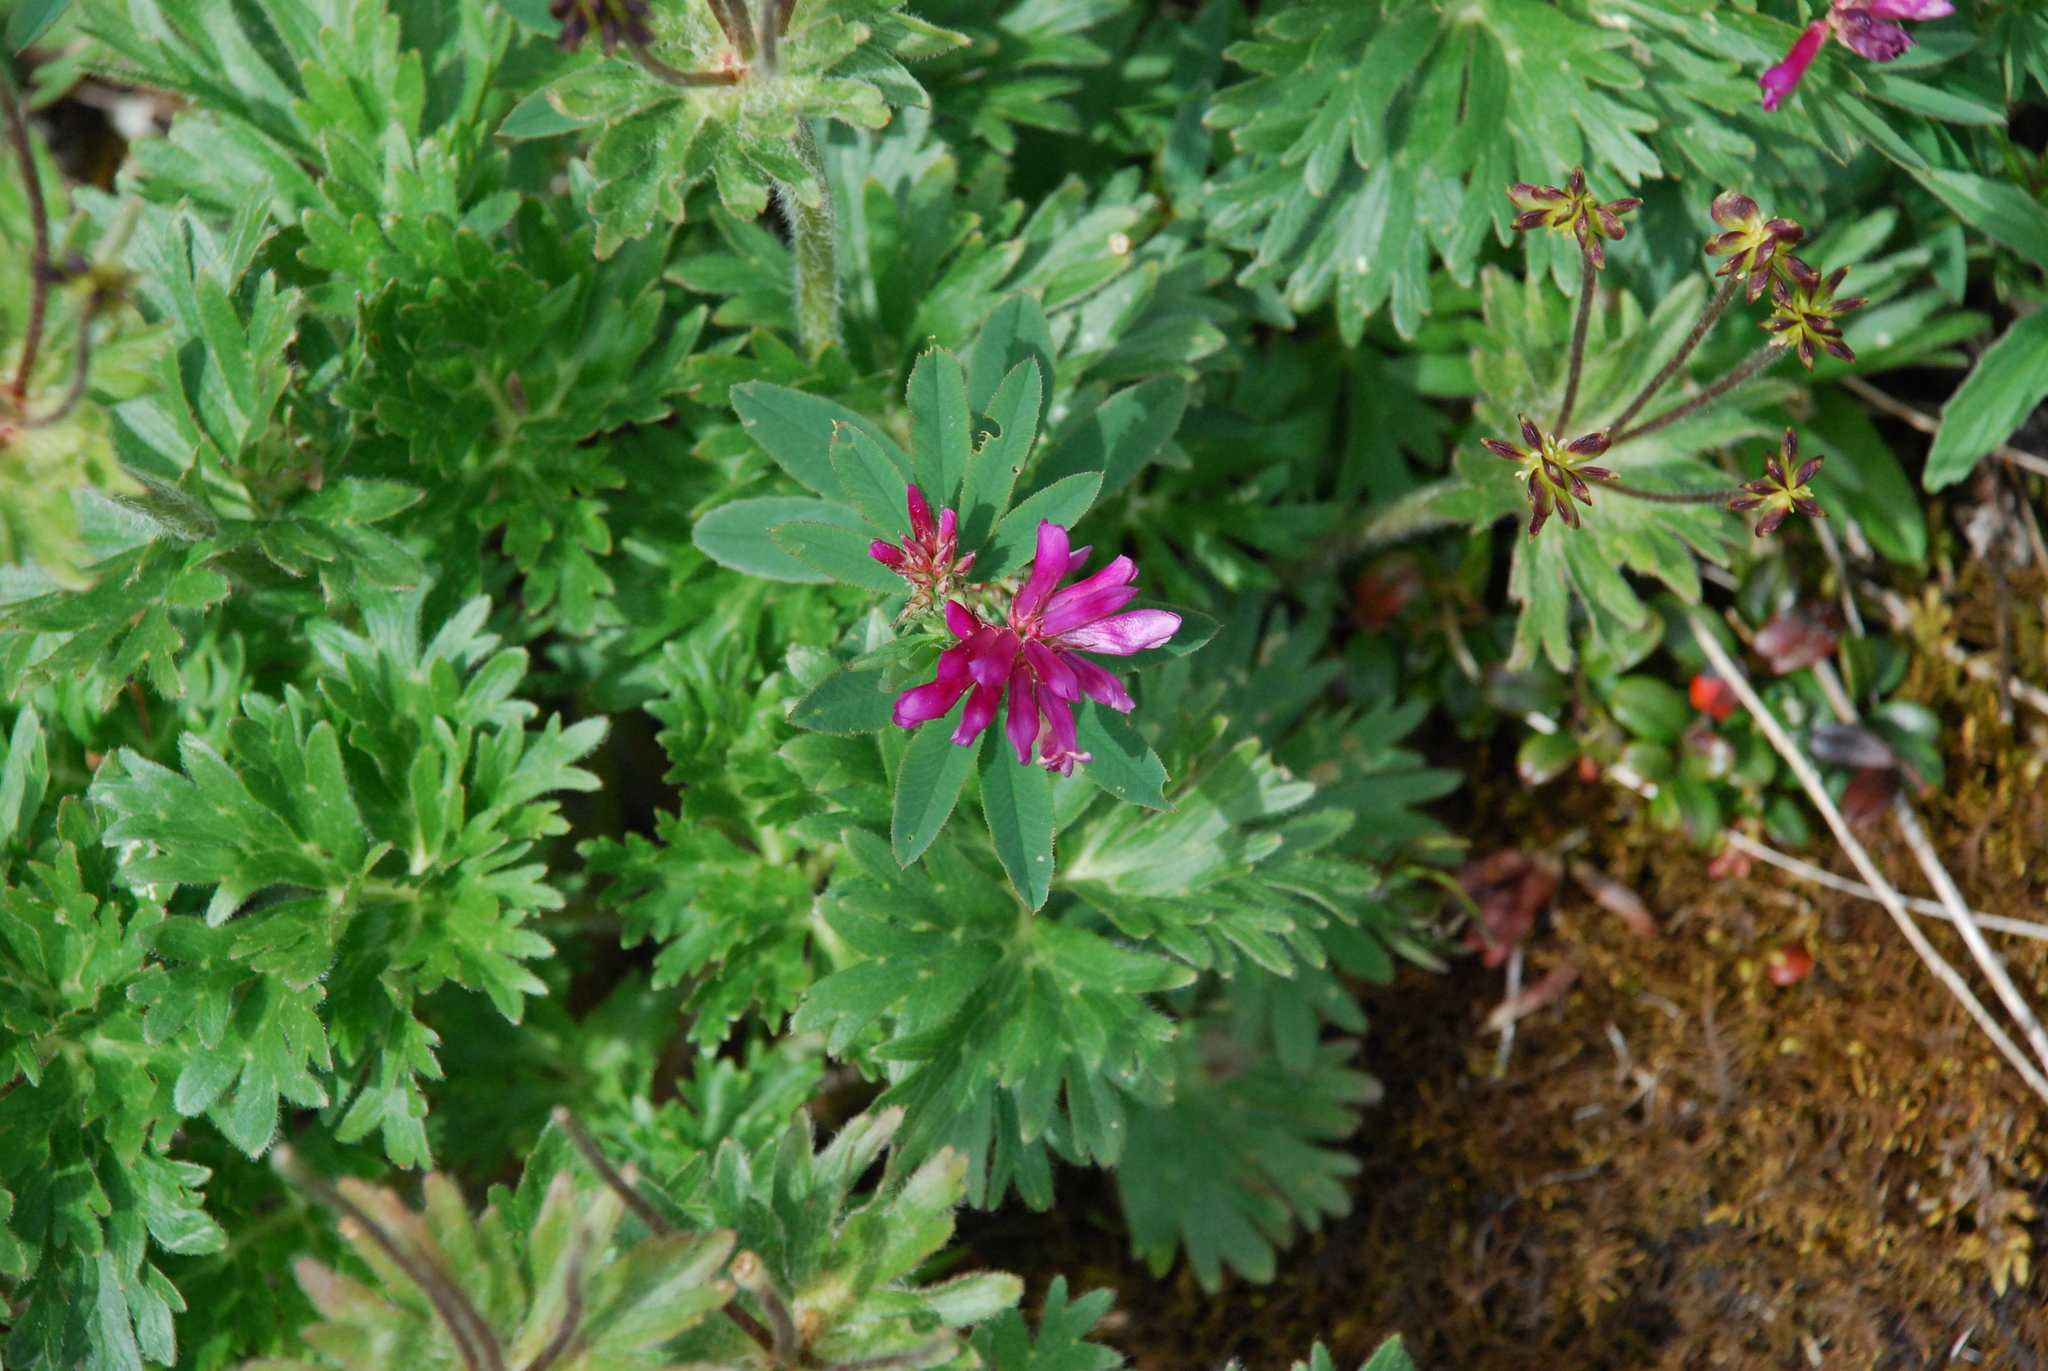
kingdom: Plantae
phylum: Tracheophyta
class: Magnoliopsida
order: Fabales
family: Fabaceae
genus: Trifolium
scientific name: Trifolium lupinaster
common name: Lupine clover
